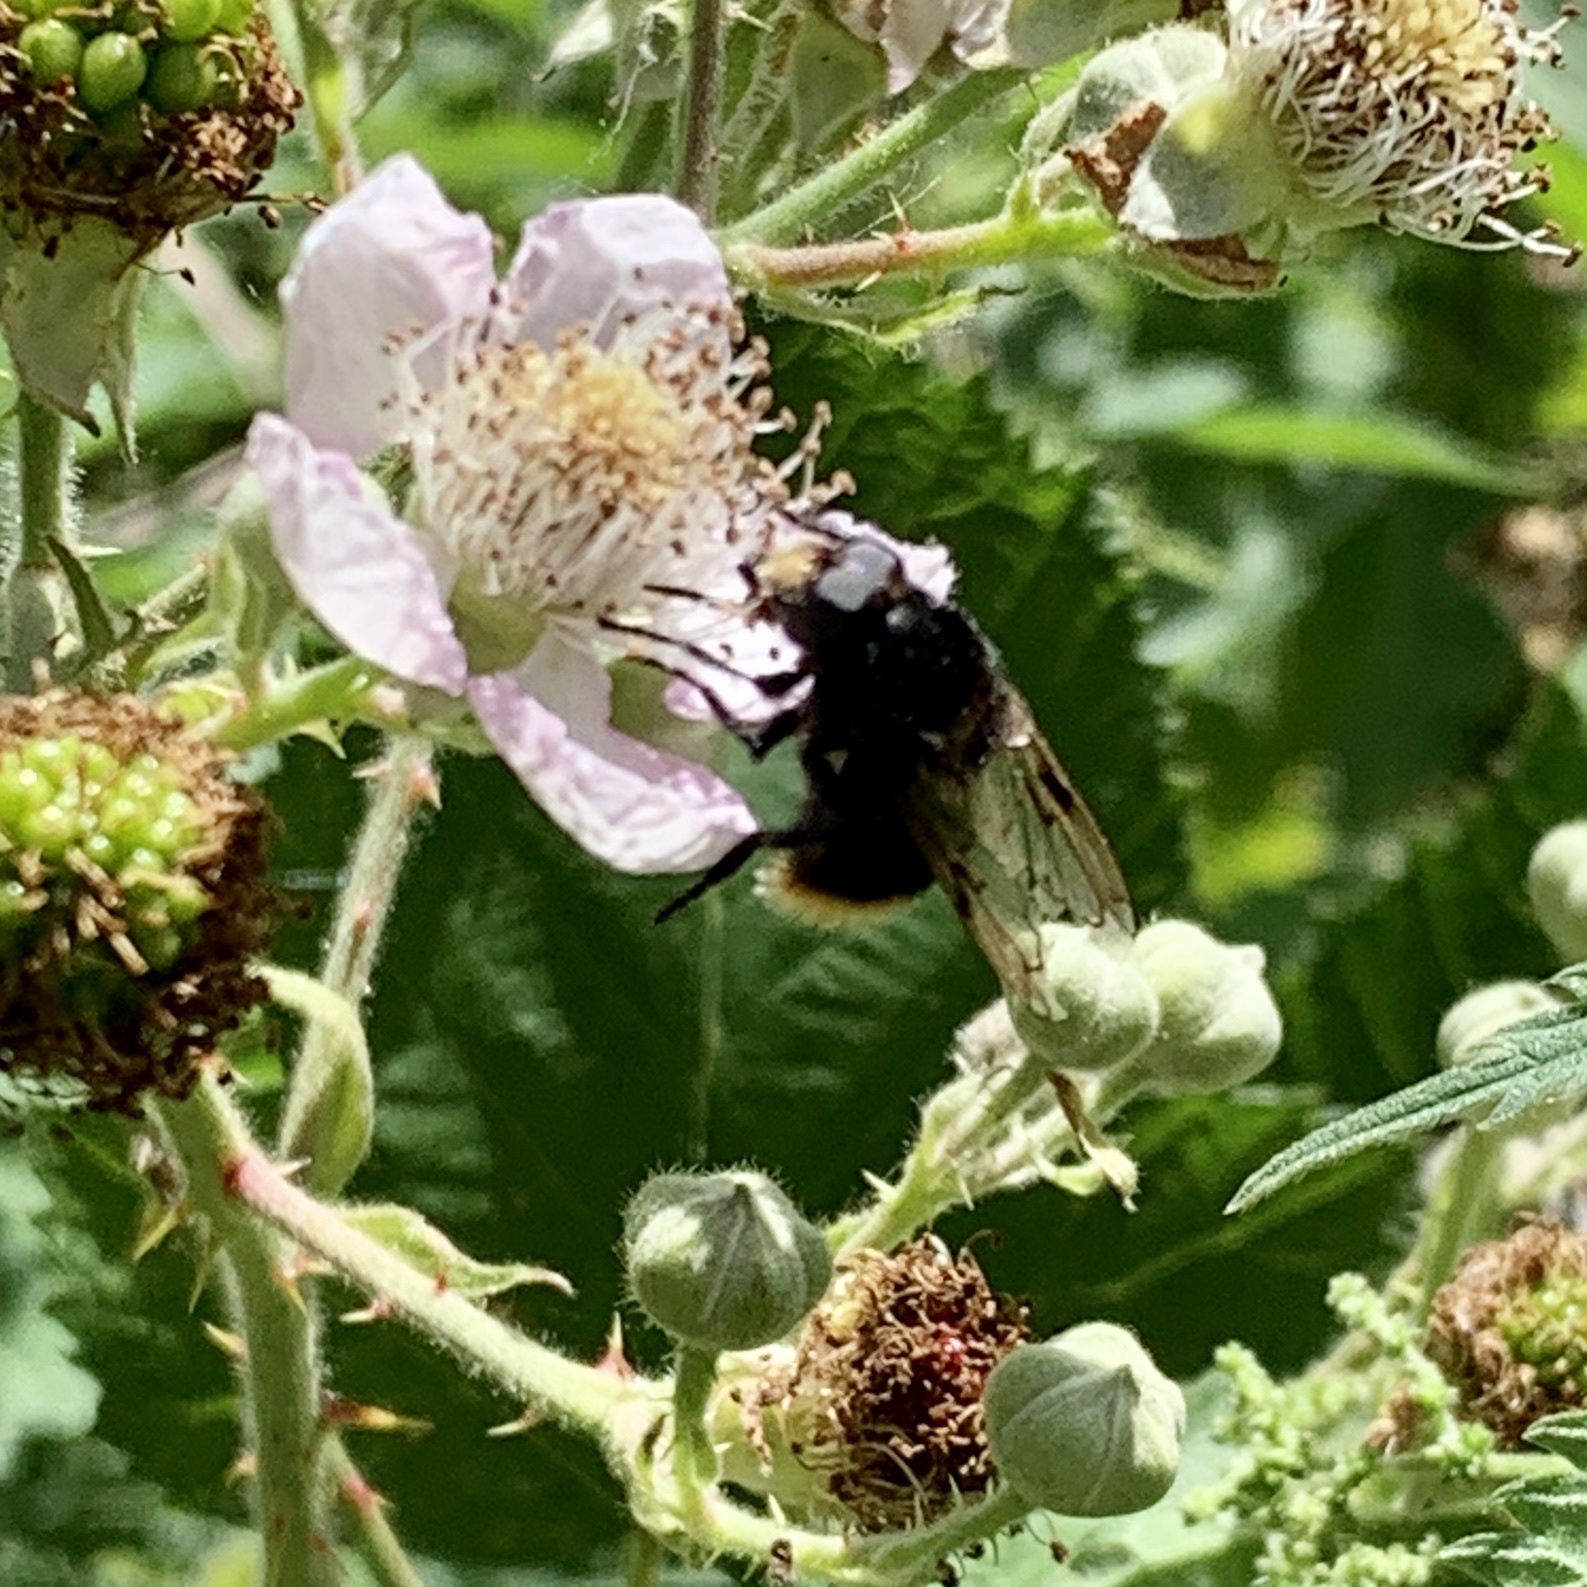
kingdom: Animalia
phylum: Arthropoda
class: Insecta
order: Diptera
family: Syrphidae
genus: Volucella
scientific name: Volucella bombylans
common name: Bumble bee hover fly
